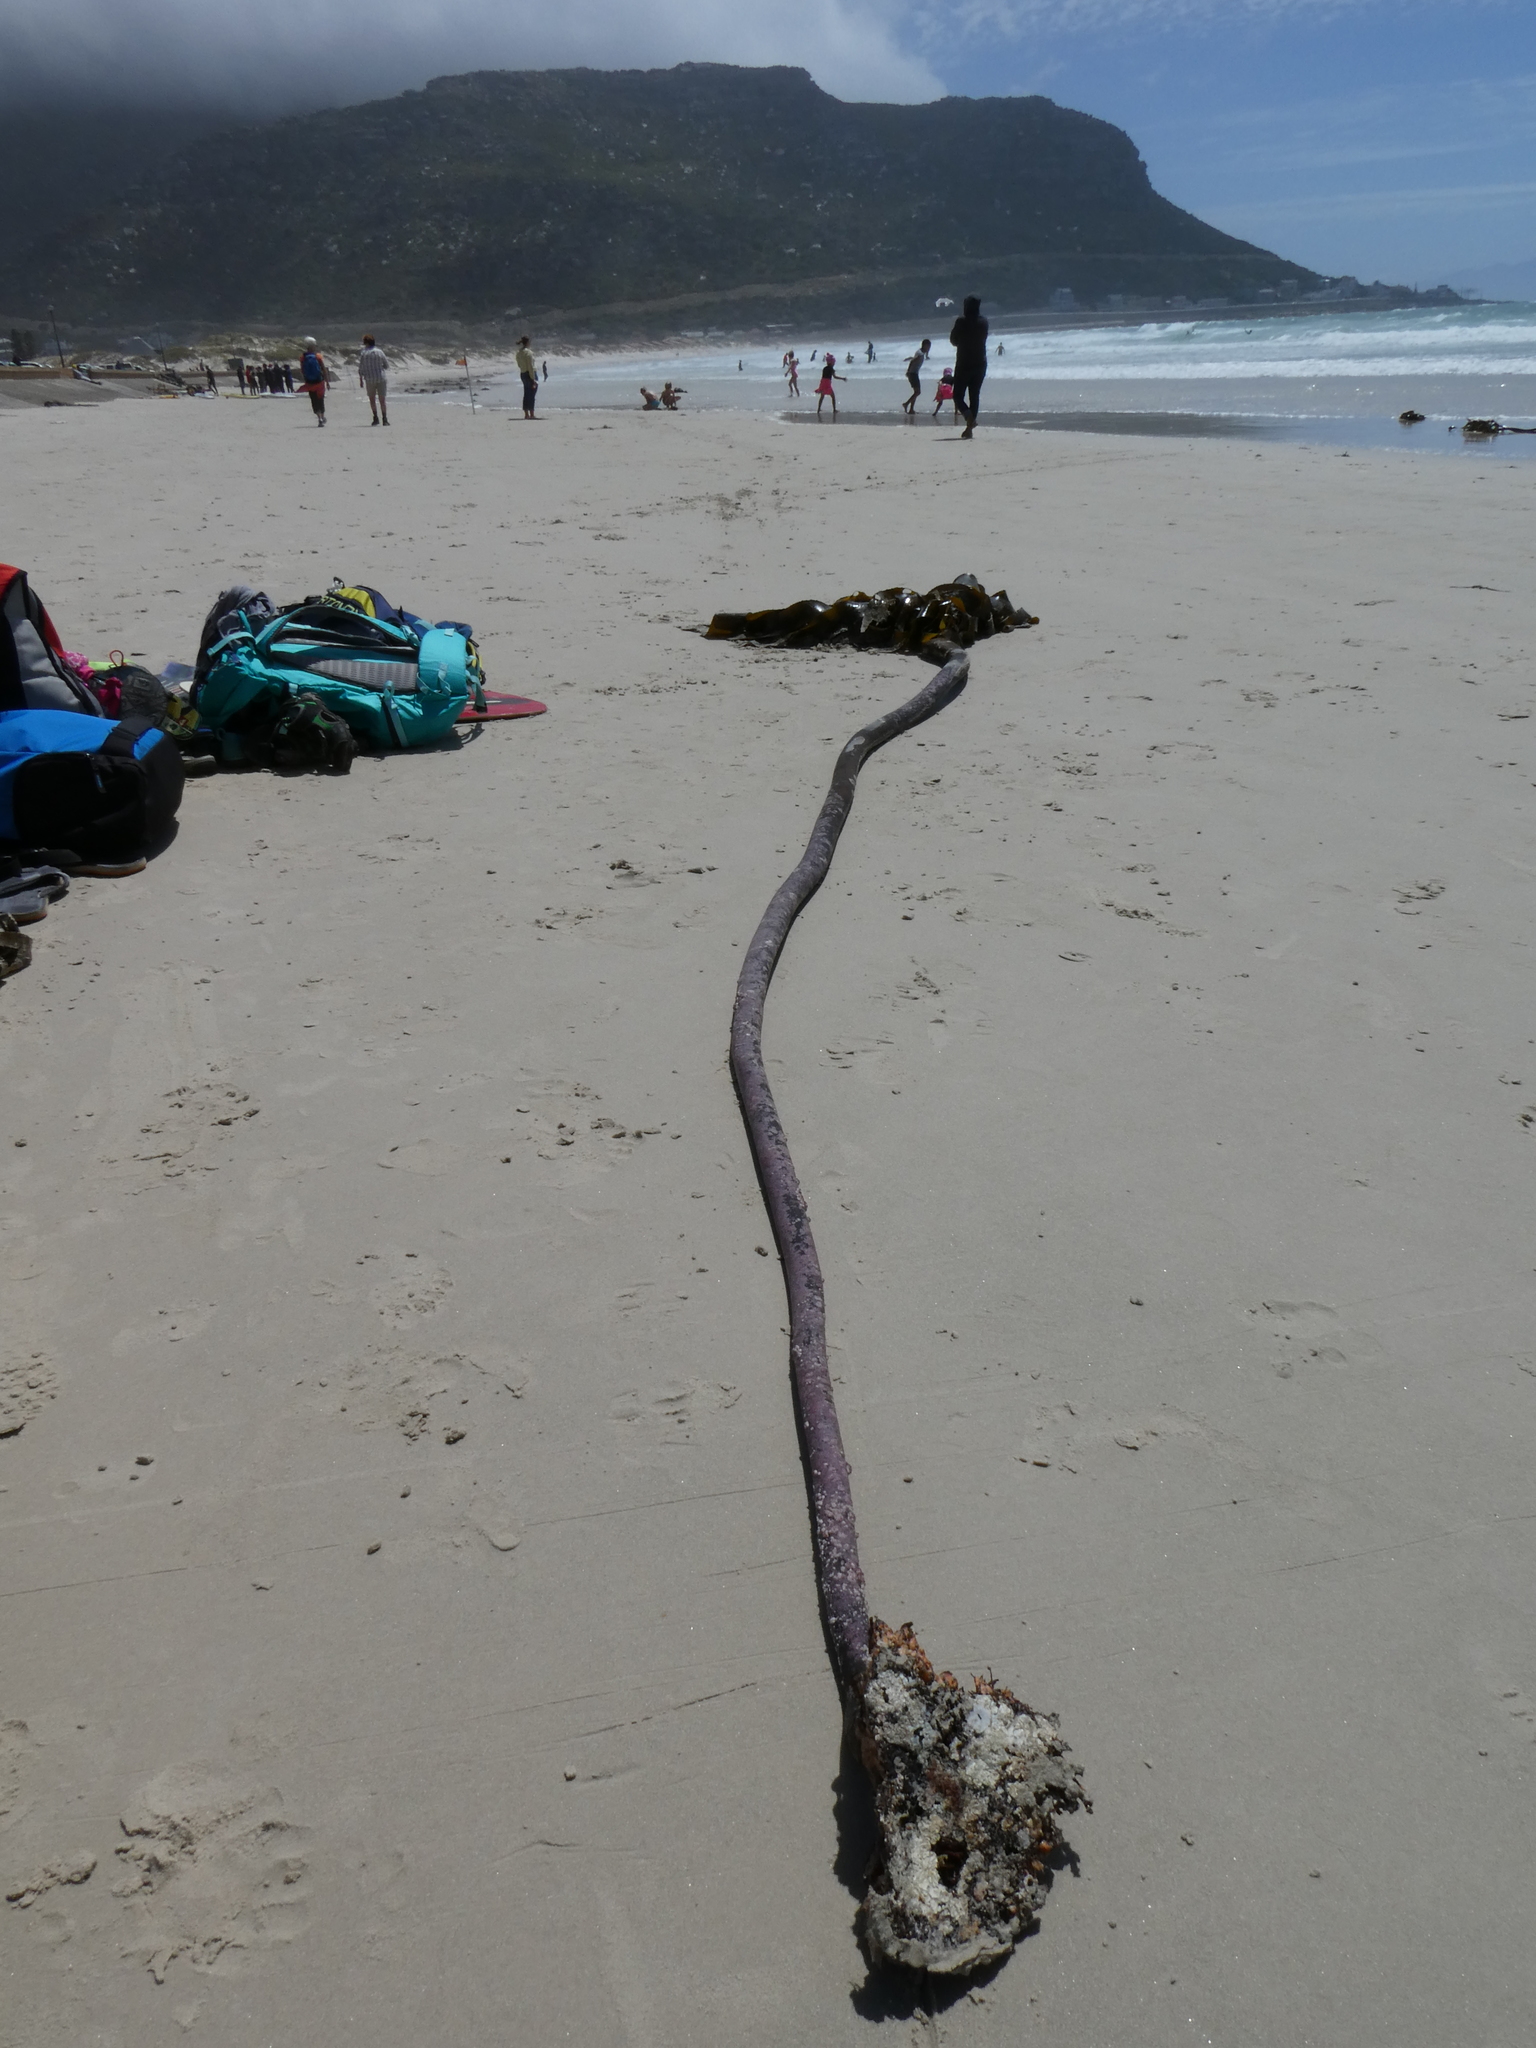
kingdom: Chromista
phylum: Ochrophyta
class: Phaeophyceae
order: Laminariales
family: Lessoniaceae
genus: Ecklonia
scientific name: Ecklonia
